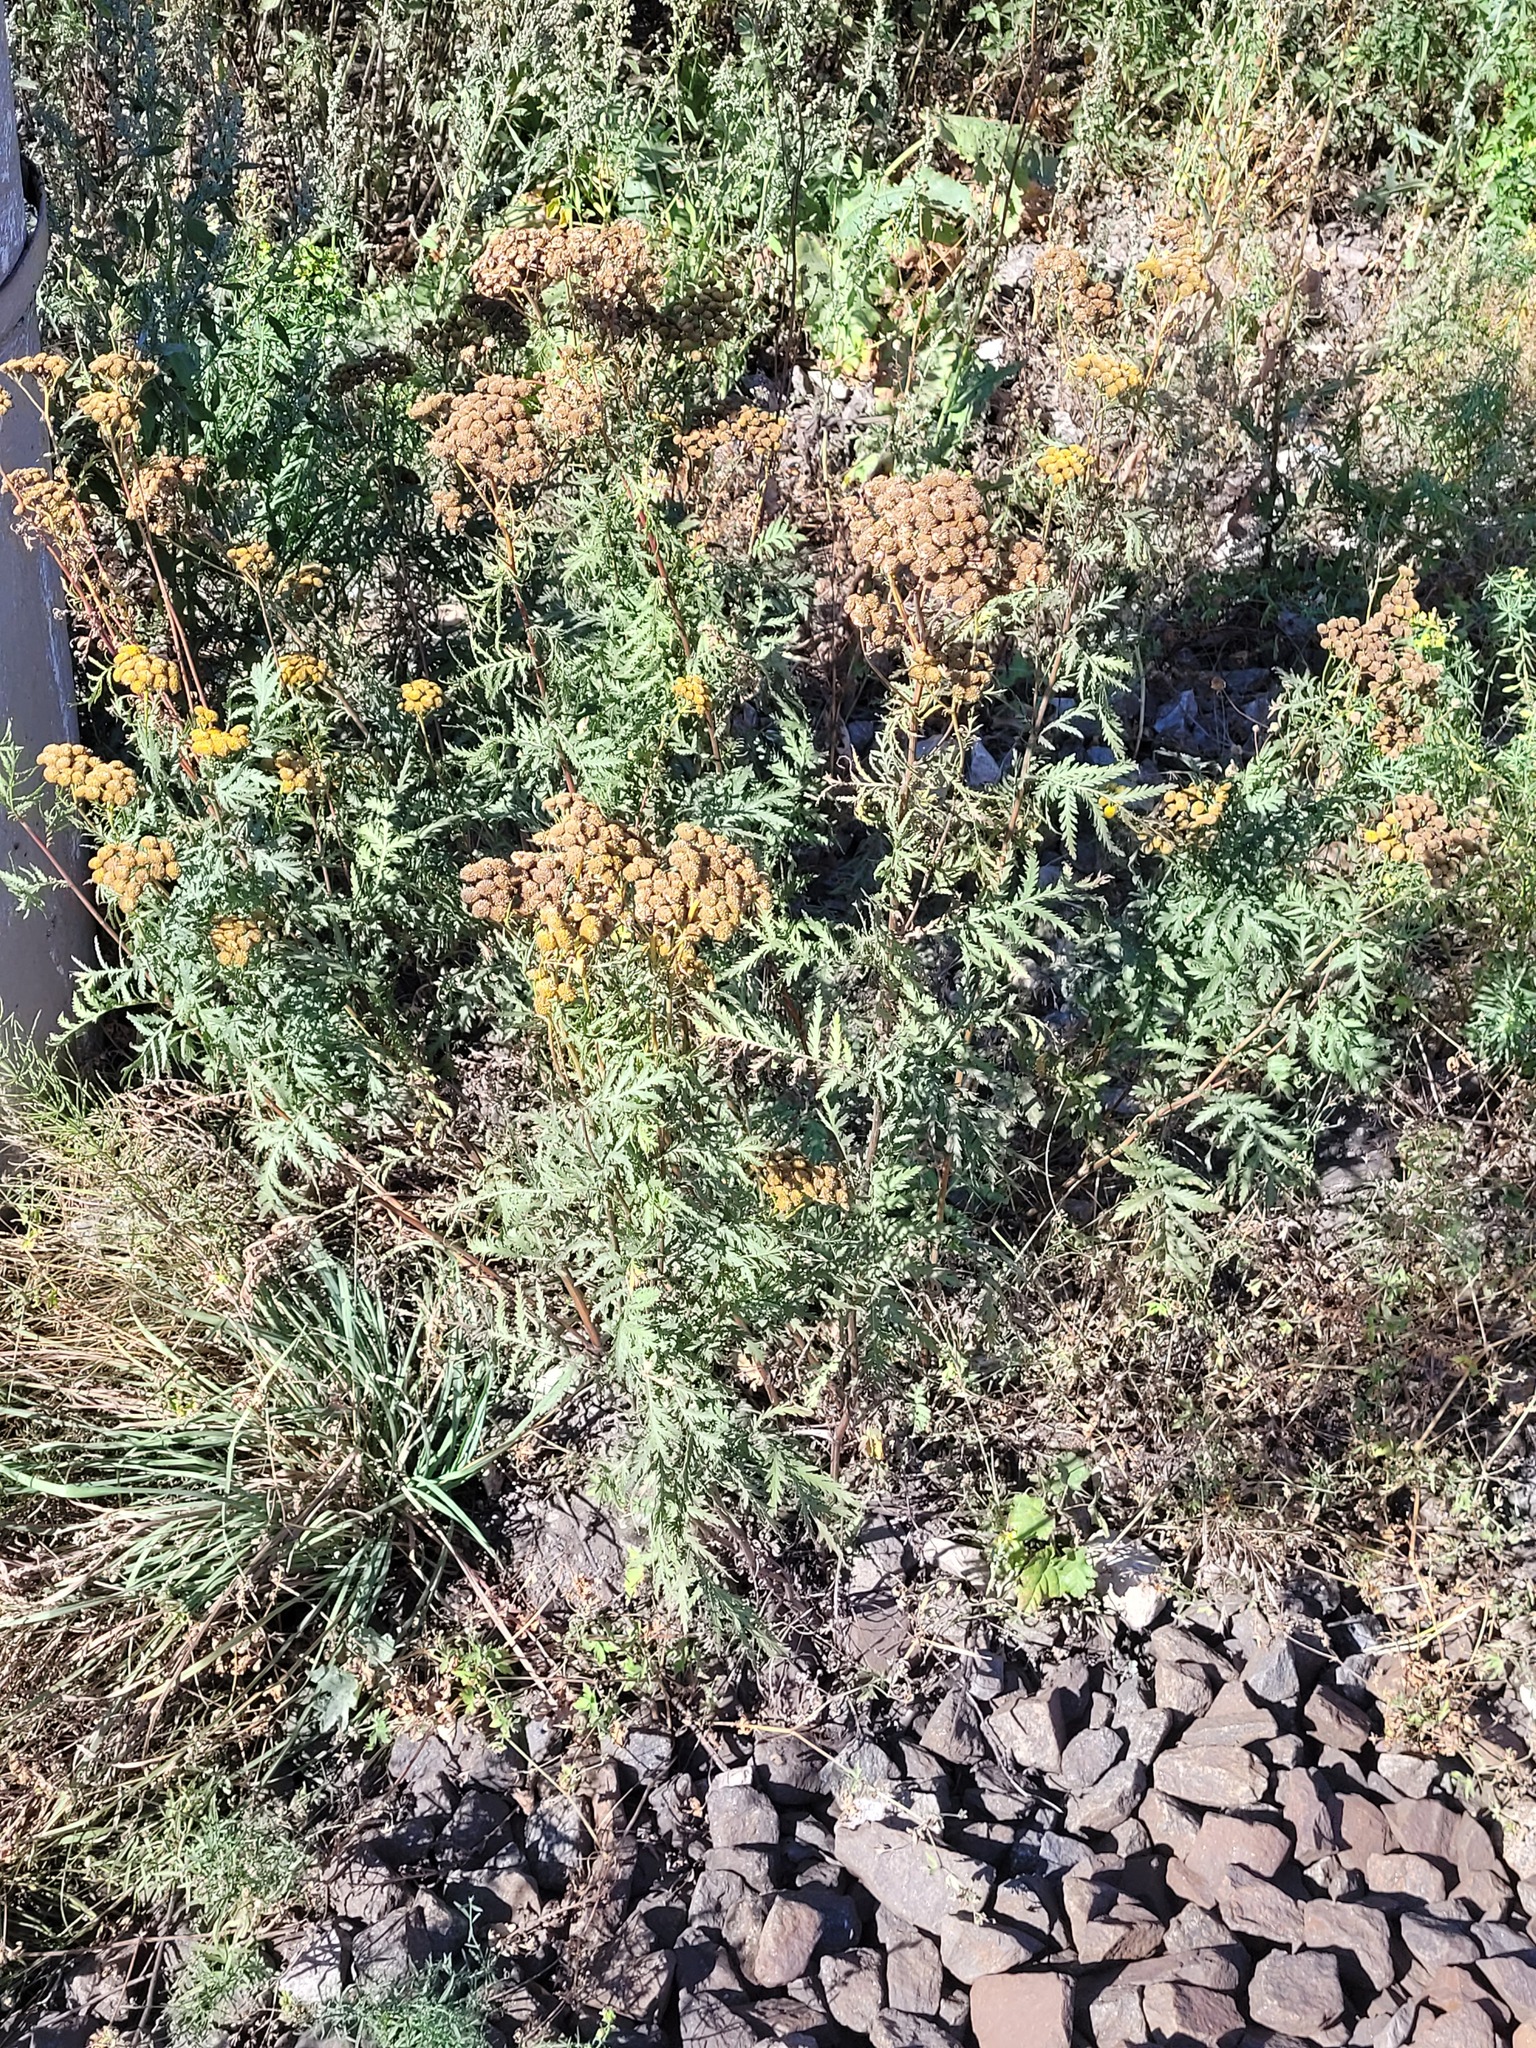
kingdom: Plantae
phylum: Tracheophyta
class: Magnoliopsida
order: Asterales
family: Asteraceae
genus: Tanacetum
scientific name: Tanacetum vulgare
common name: Common tansy
